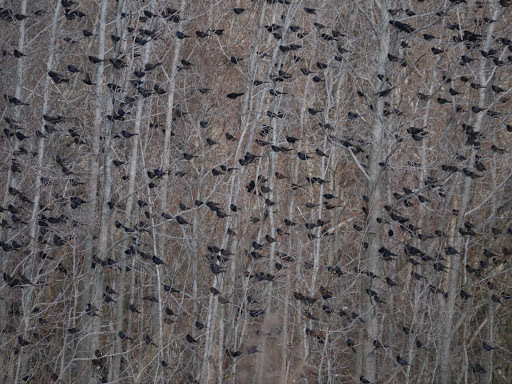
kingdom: Animalia
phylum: Chordata
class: Aves
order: Passeriformes
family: Icteridae
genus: Quiscalus
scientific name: Quiscalus quiscula
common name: Common grackle
